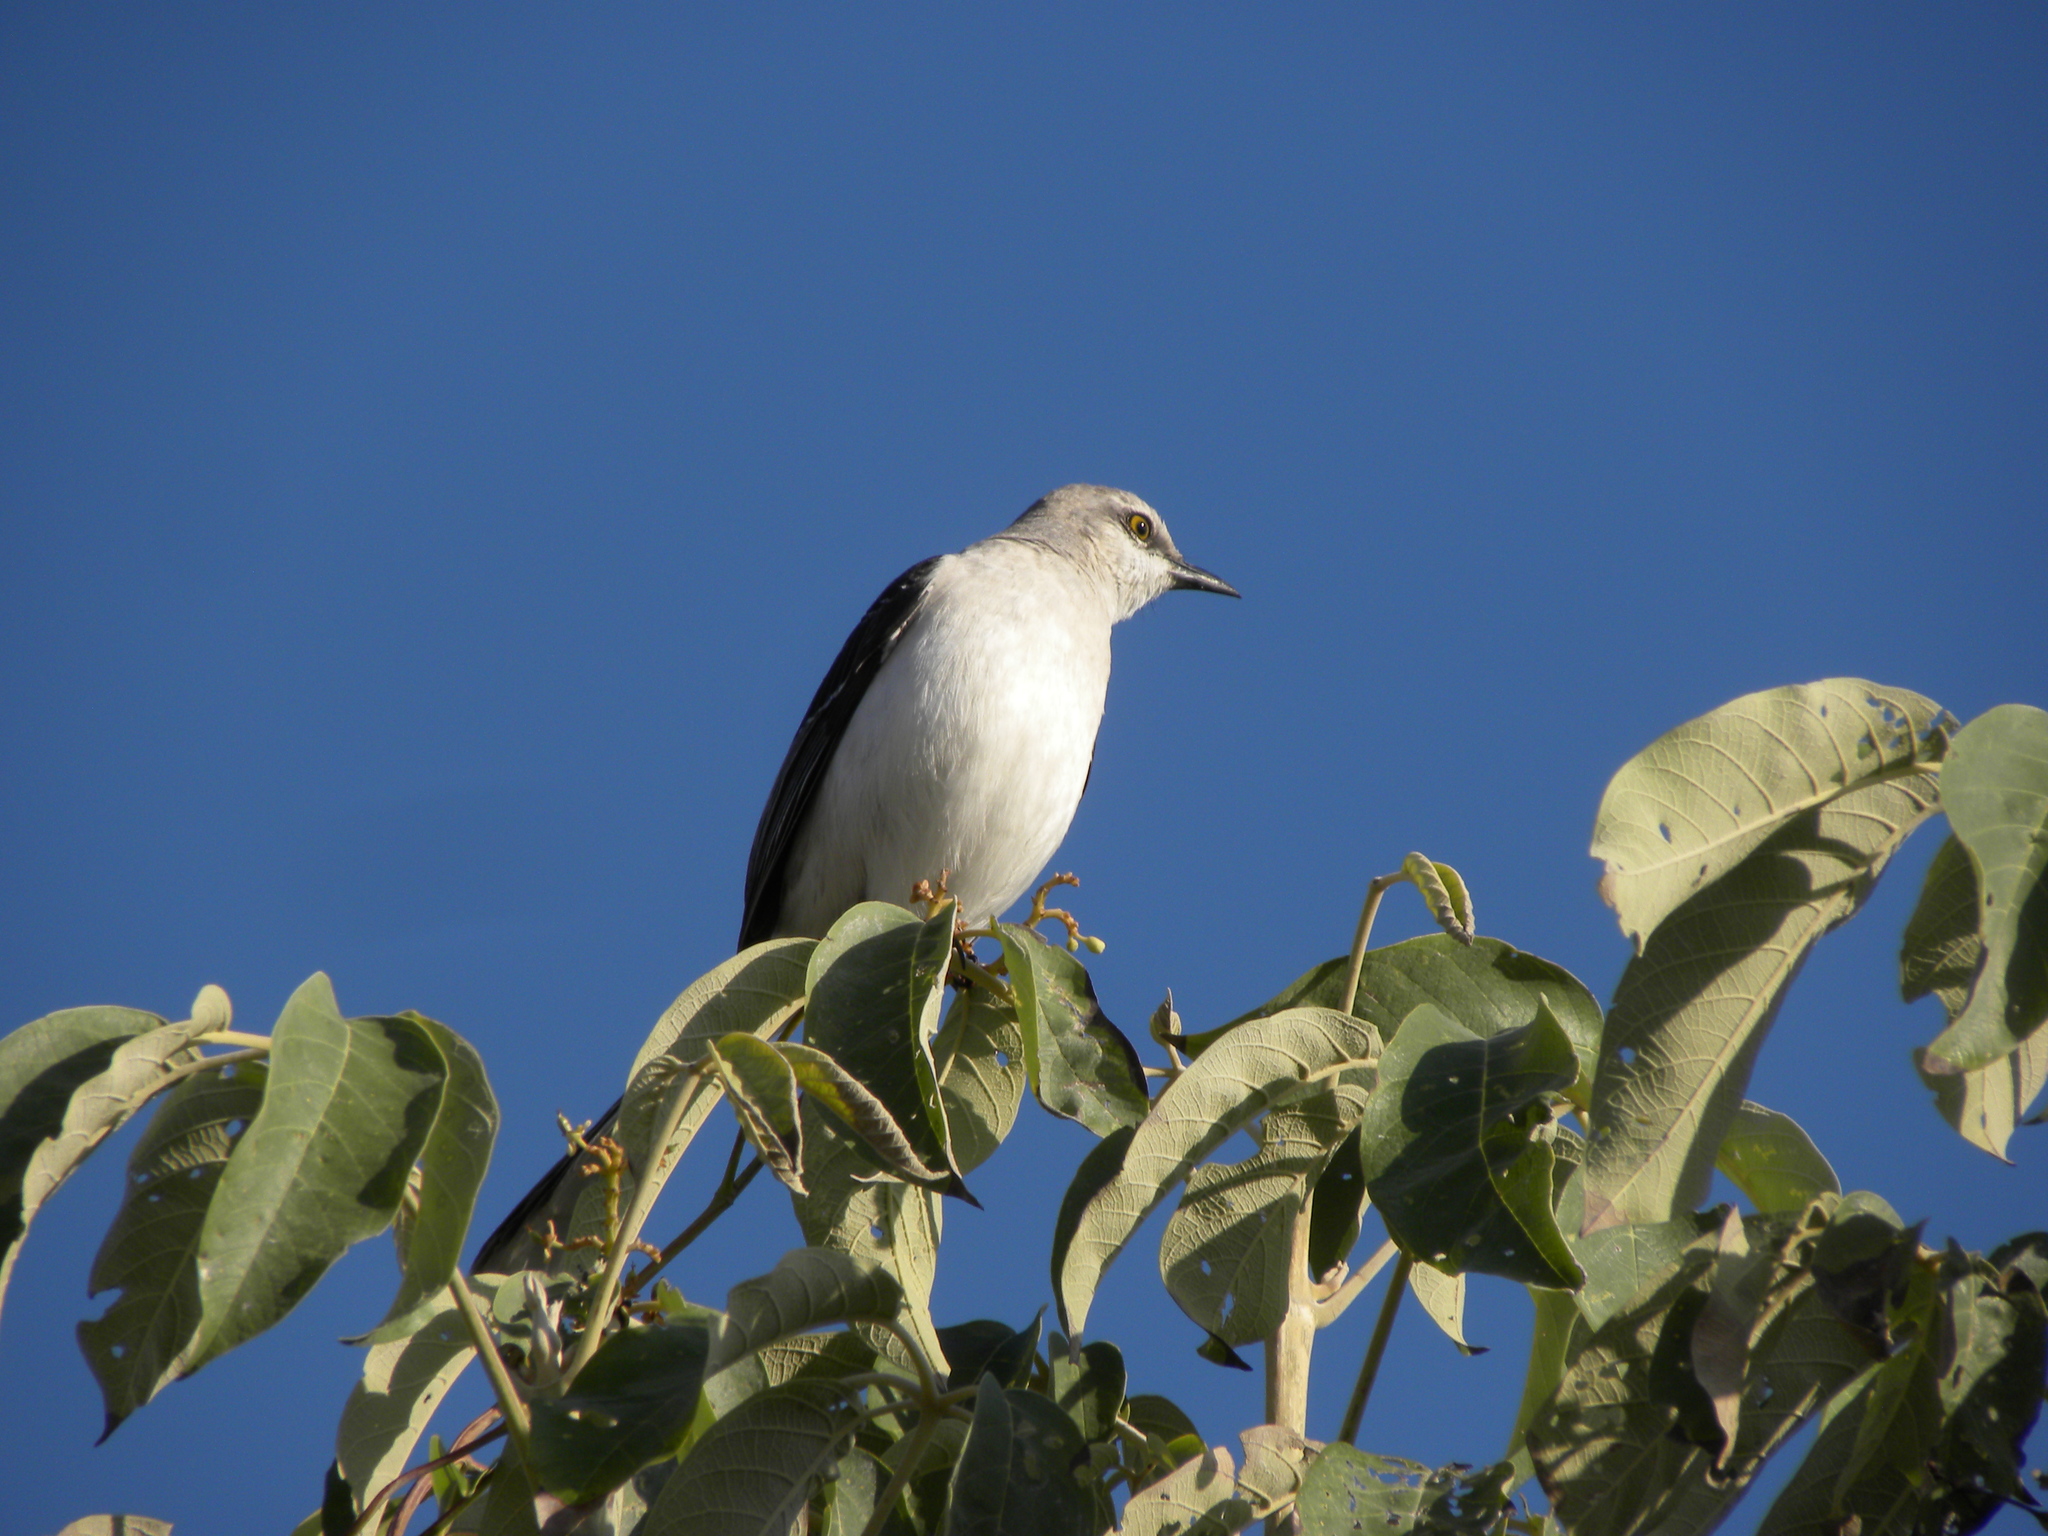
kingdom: Animalia
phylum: Chordata
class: Aves
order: Passeriformes
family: Mimidae
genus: Mimus
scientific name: Mimus gilvus
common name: Tropical mockingbird
